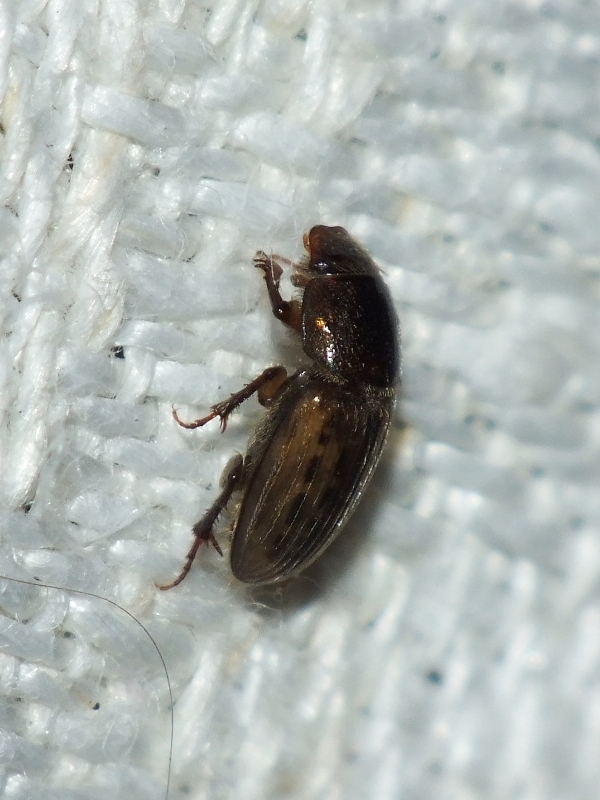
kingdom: Animalia
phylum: Arthropoda
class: Insecta
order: Coleoptera
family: Scarabaeidae
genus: Euheptaulacus
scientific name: Euheptaulacus sus
